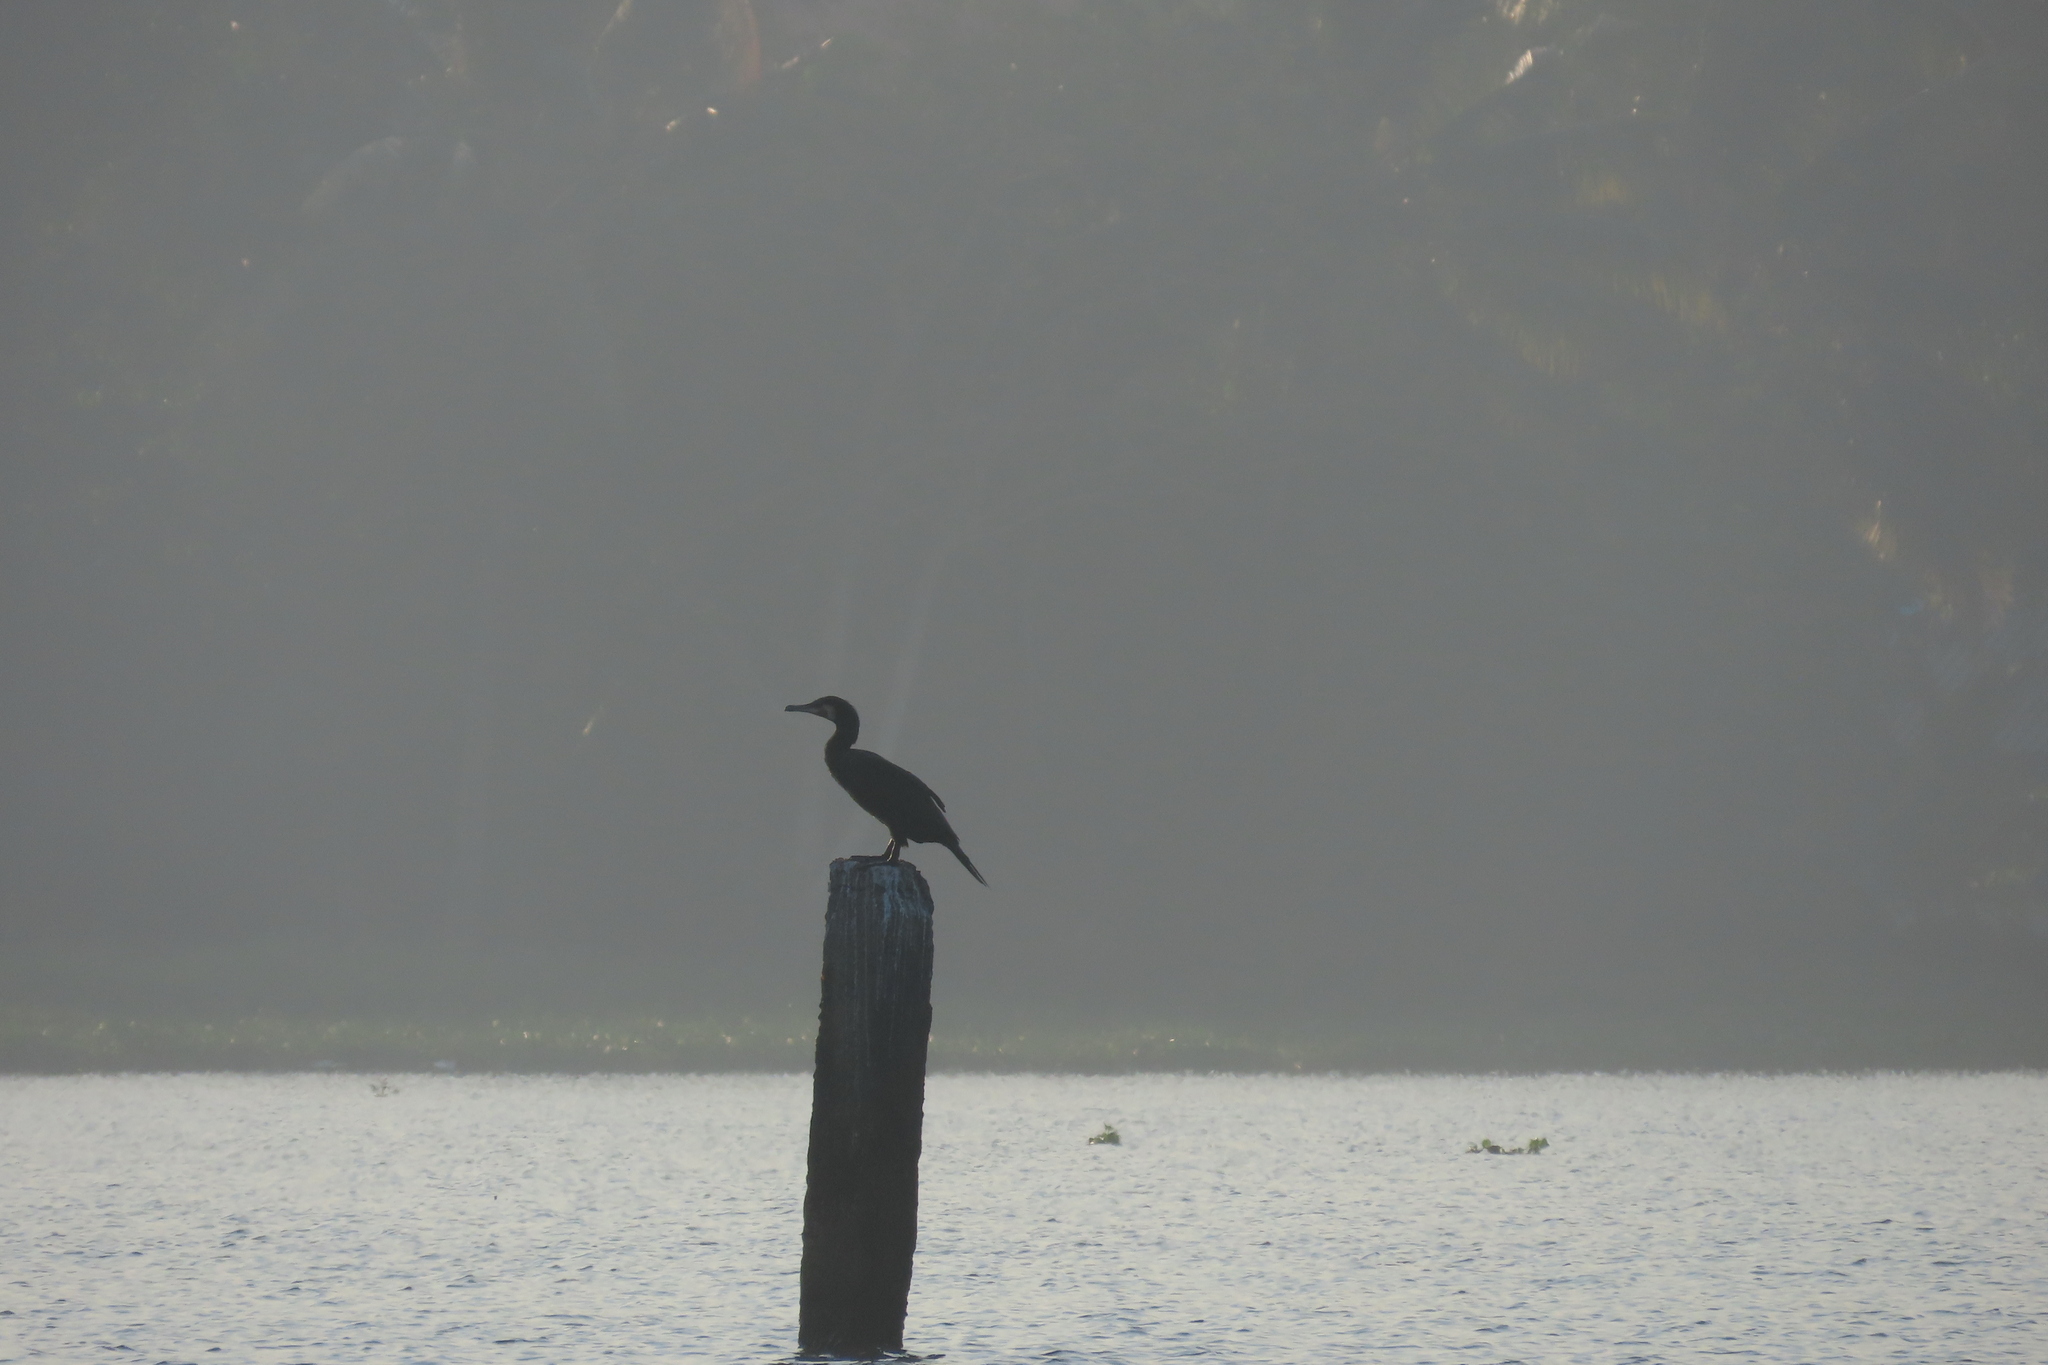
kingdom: Animalia
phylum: Chordata
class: Aves
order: Suliformes
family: Phalacrocoracidae
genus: Phalacrocorax
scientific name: Phalacrocorax carbo
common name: Great cormorant
